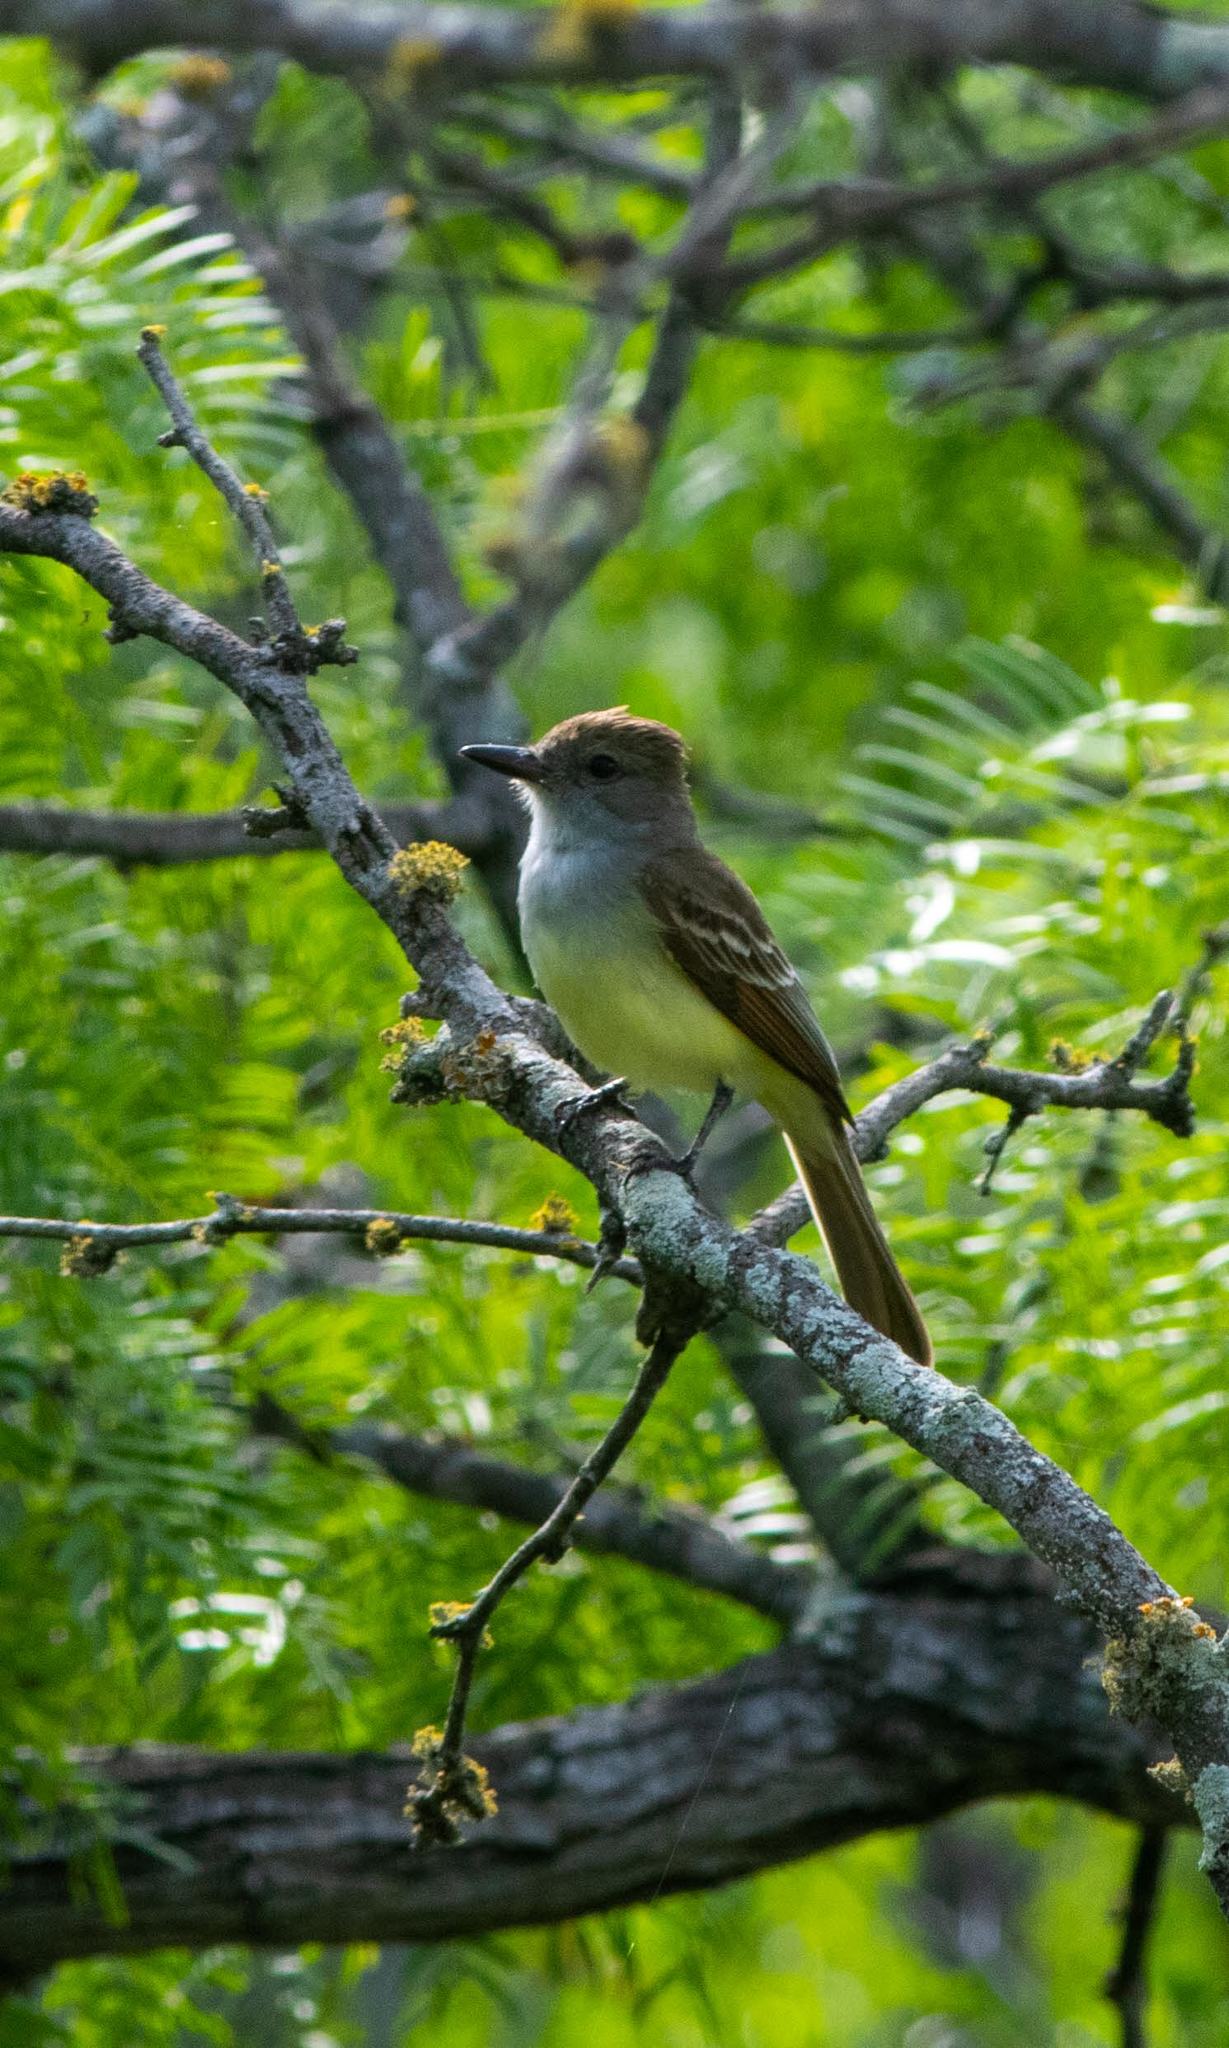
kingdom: Animalia
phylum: Chordata
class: Aves
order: Passeriformes
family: Tyrannidae
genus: Myiarchus
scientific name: Myiarchus tyrannulus
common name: Brown-crested flycatcher
